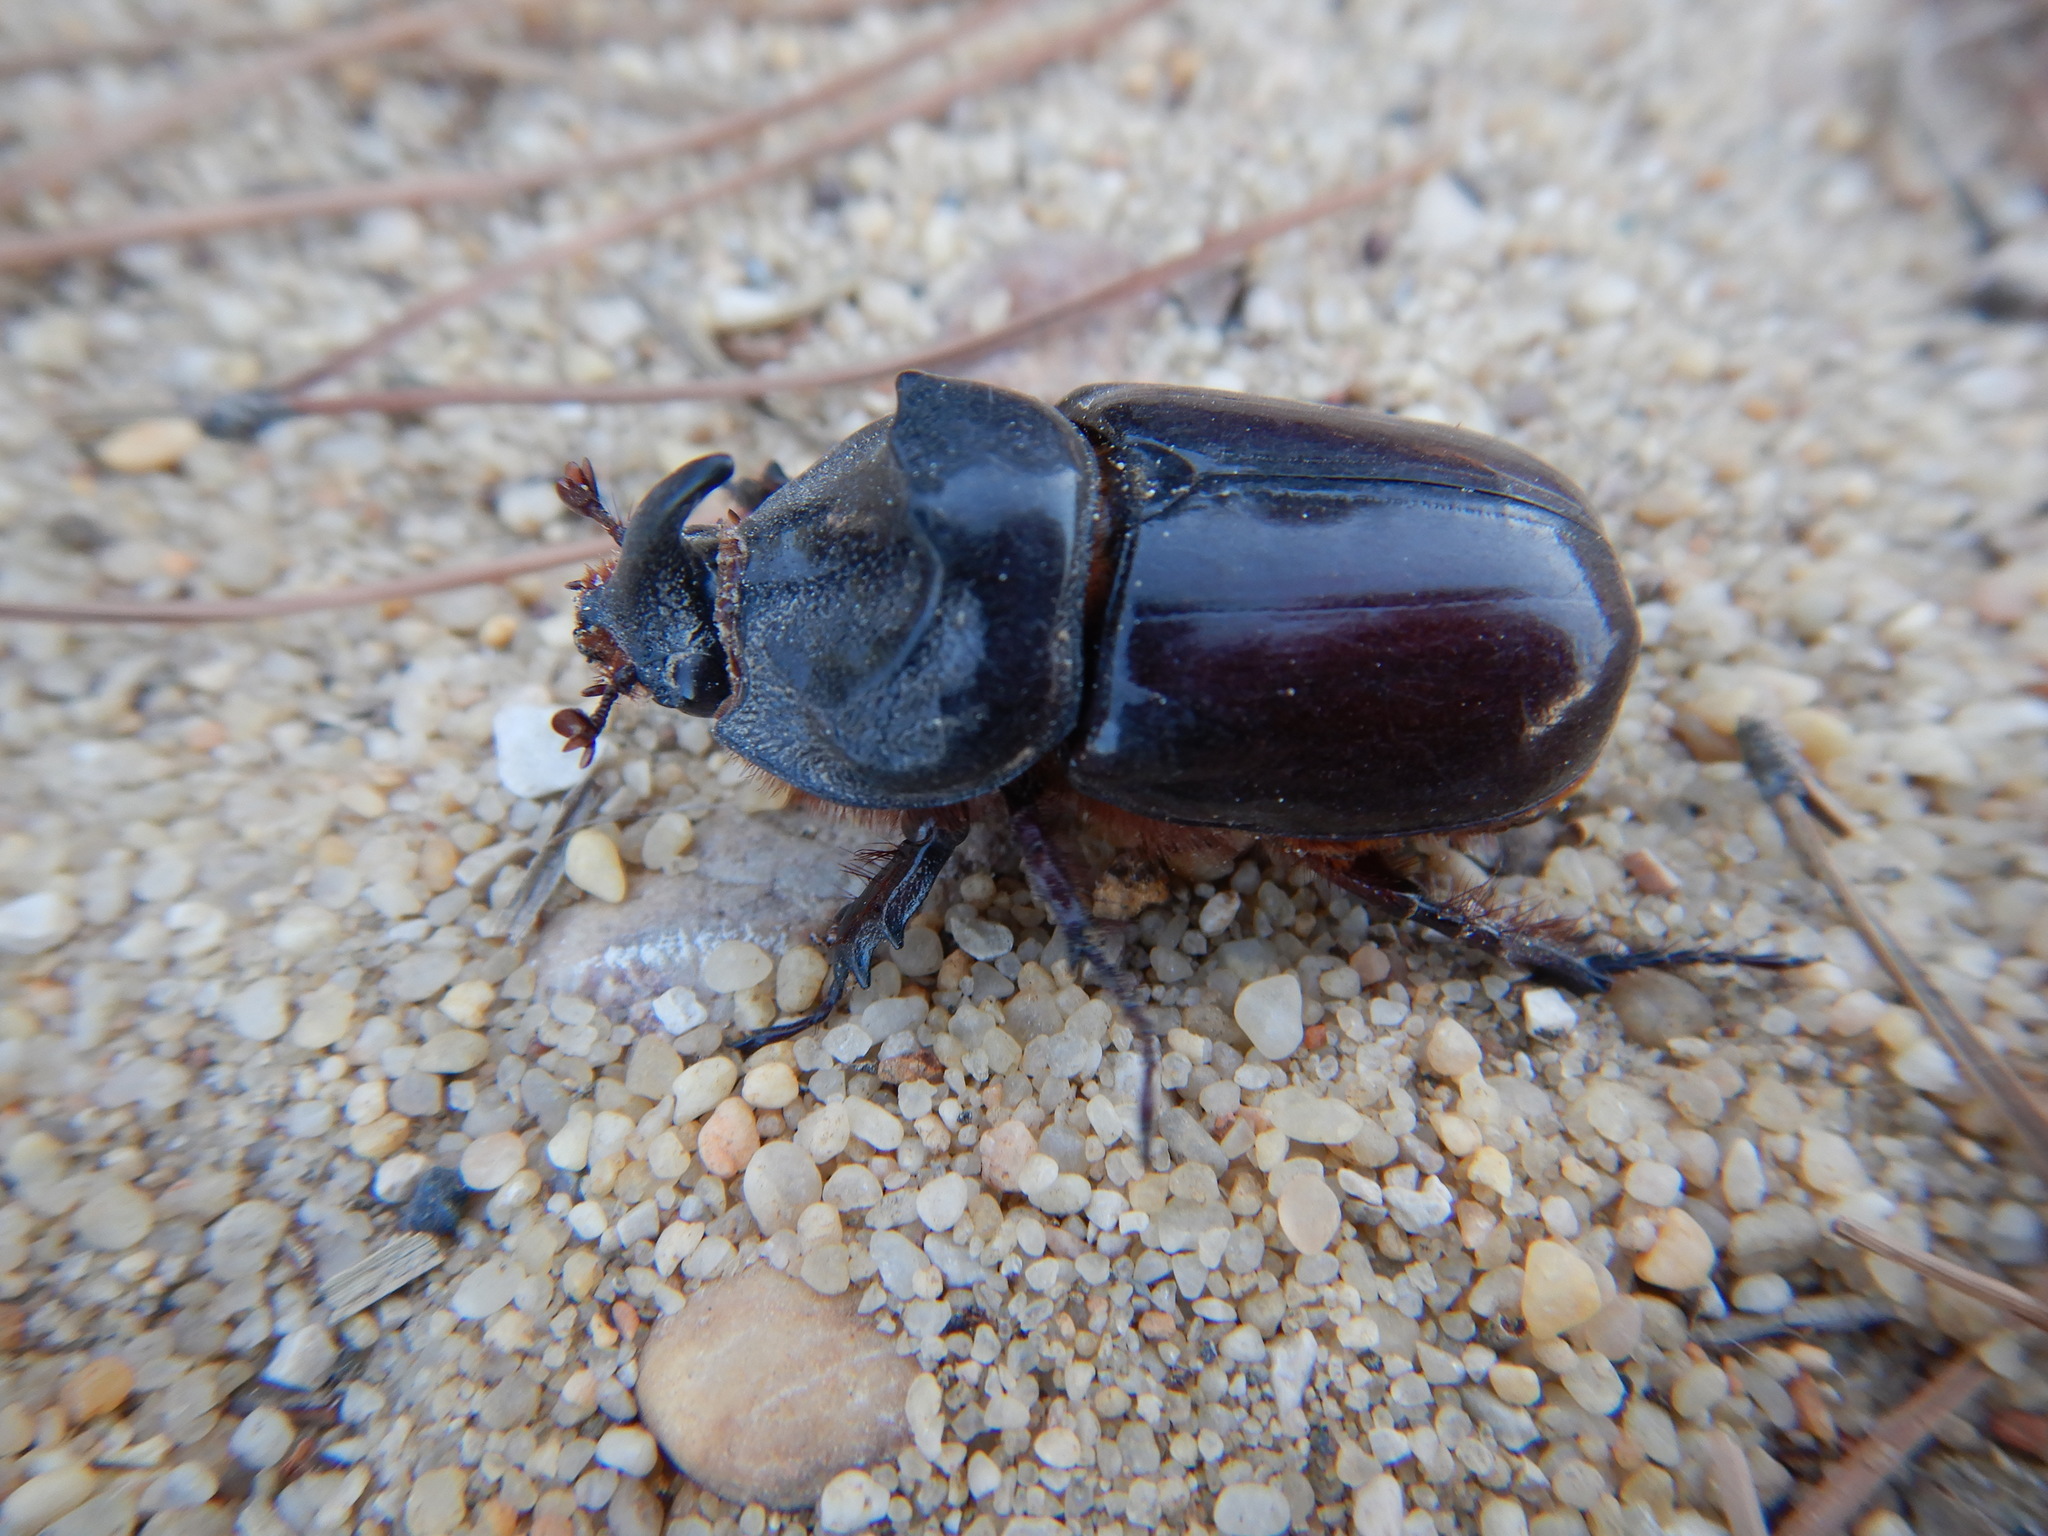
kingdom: Animalia
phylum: Arthropoda
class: Insecta
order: Coleoptera
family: Scarabaeidae
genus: Oryctes
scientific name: Oryctes nasicornis
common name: European rhinoceros beetle
